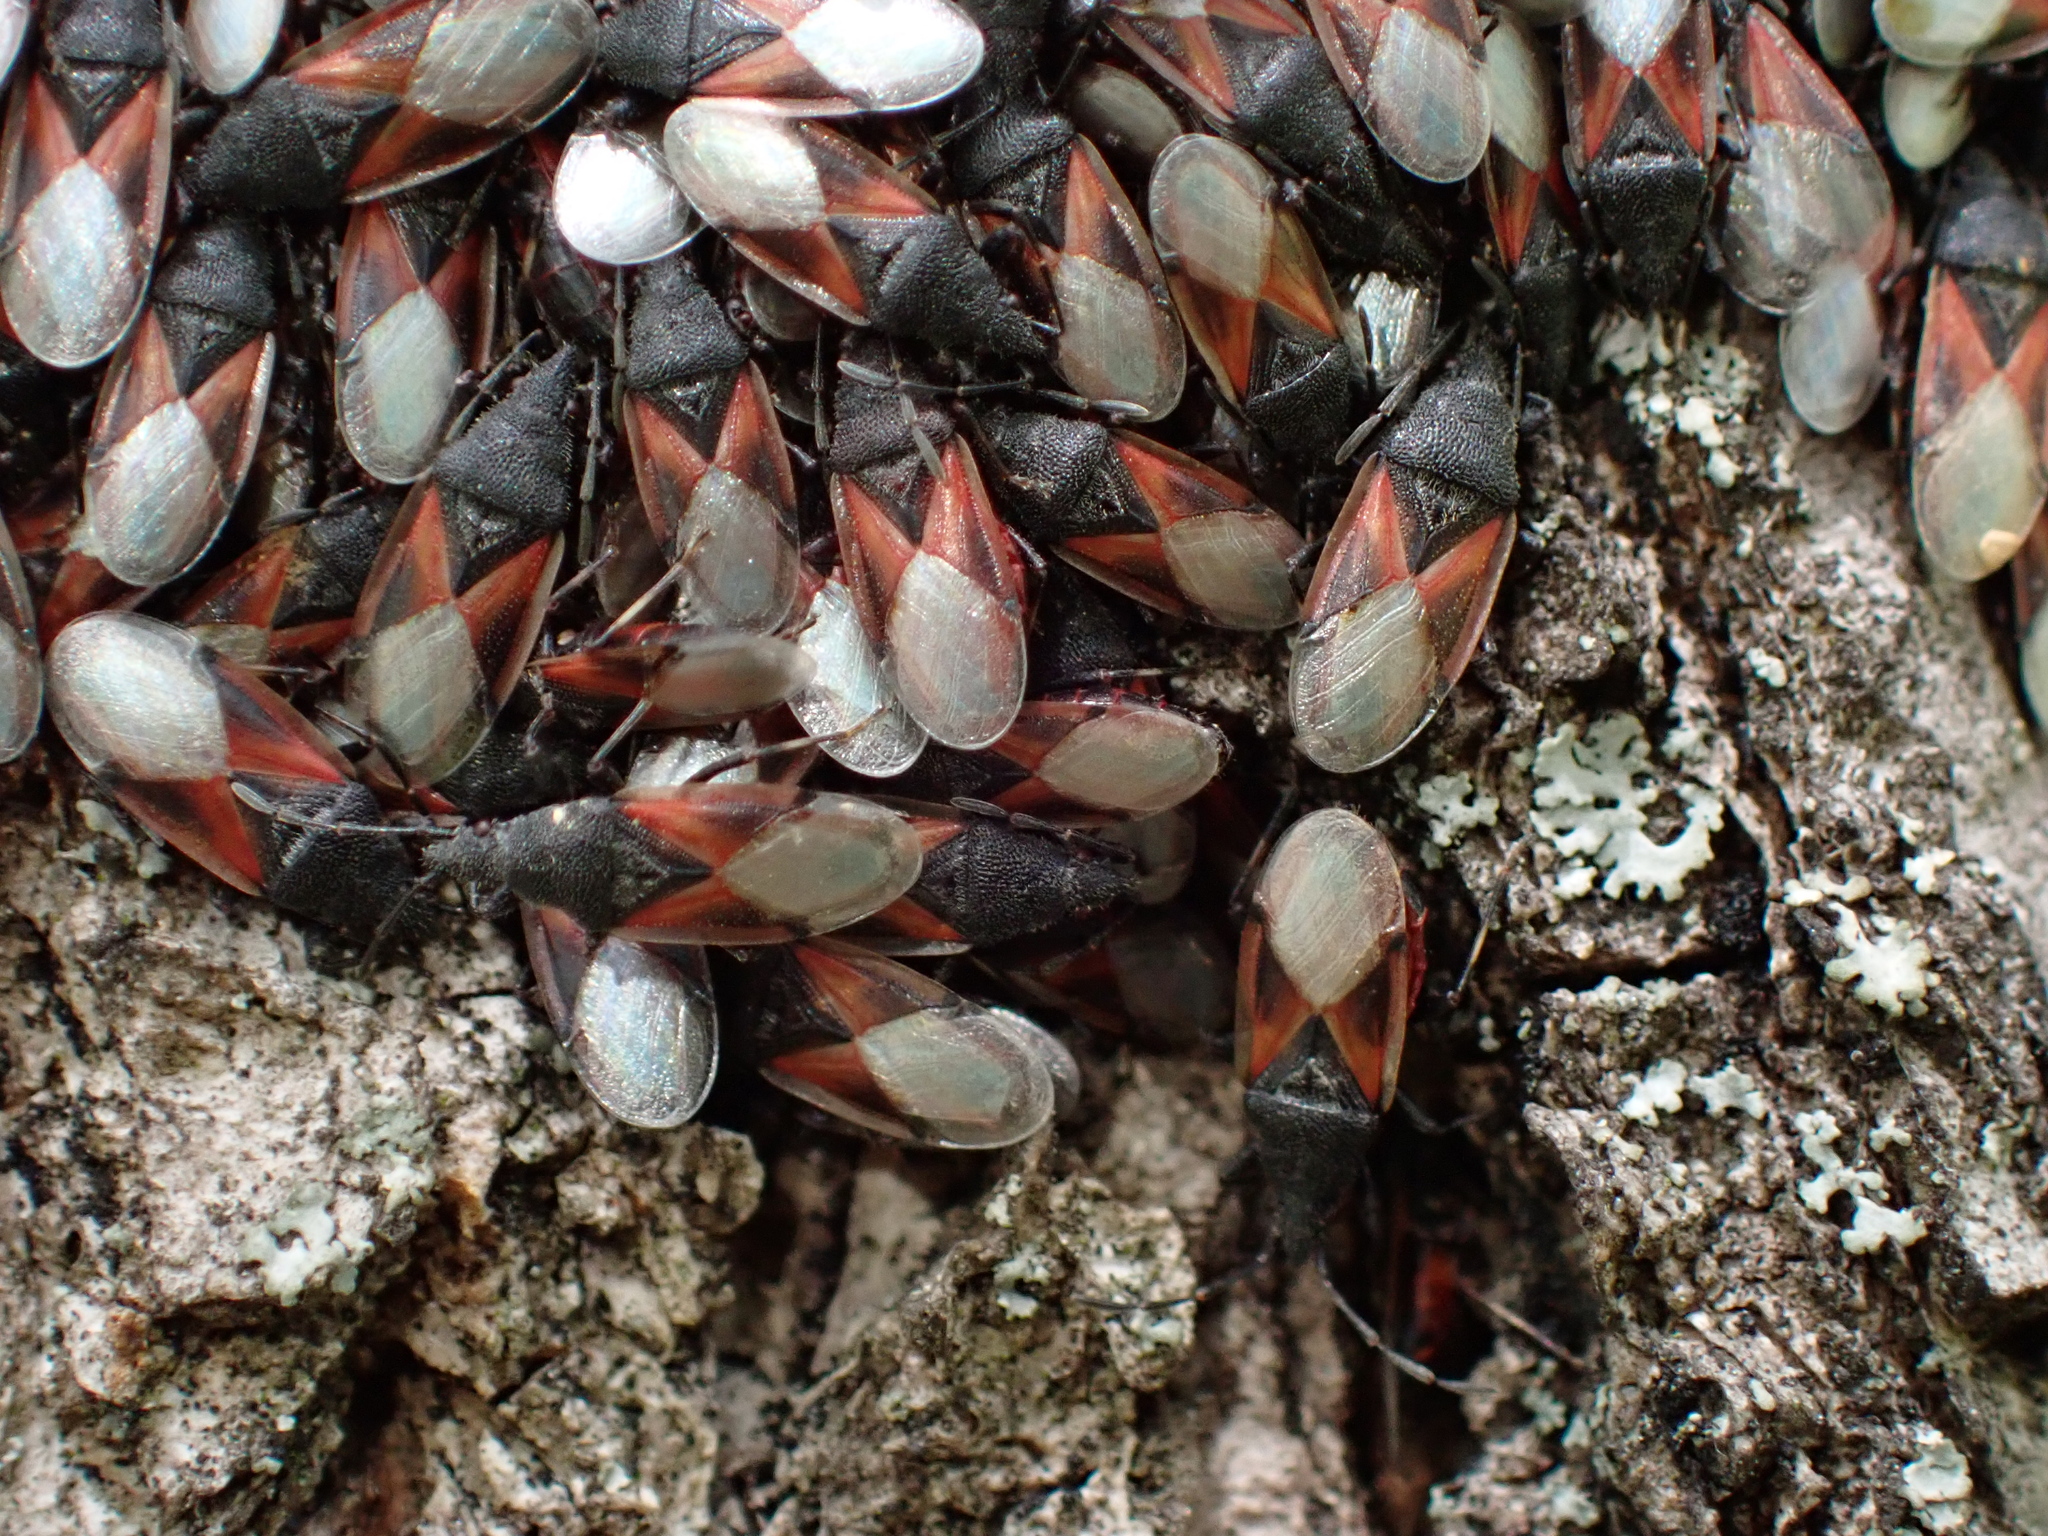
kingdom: Animalia
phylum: Arthropoda
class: Insecta
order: Hemiptera
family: Oxycarenidae
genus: Oxycarenus
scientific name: Oxycarenus lavaterae
